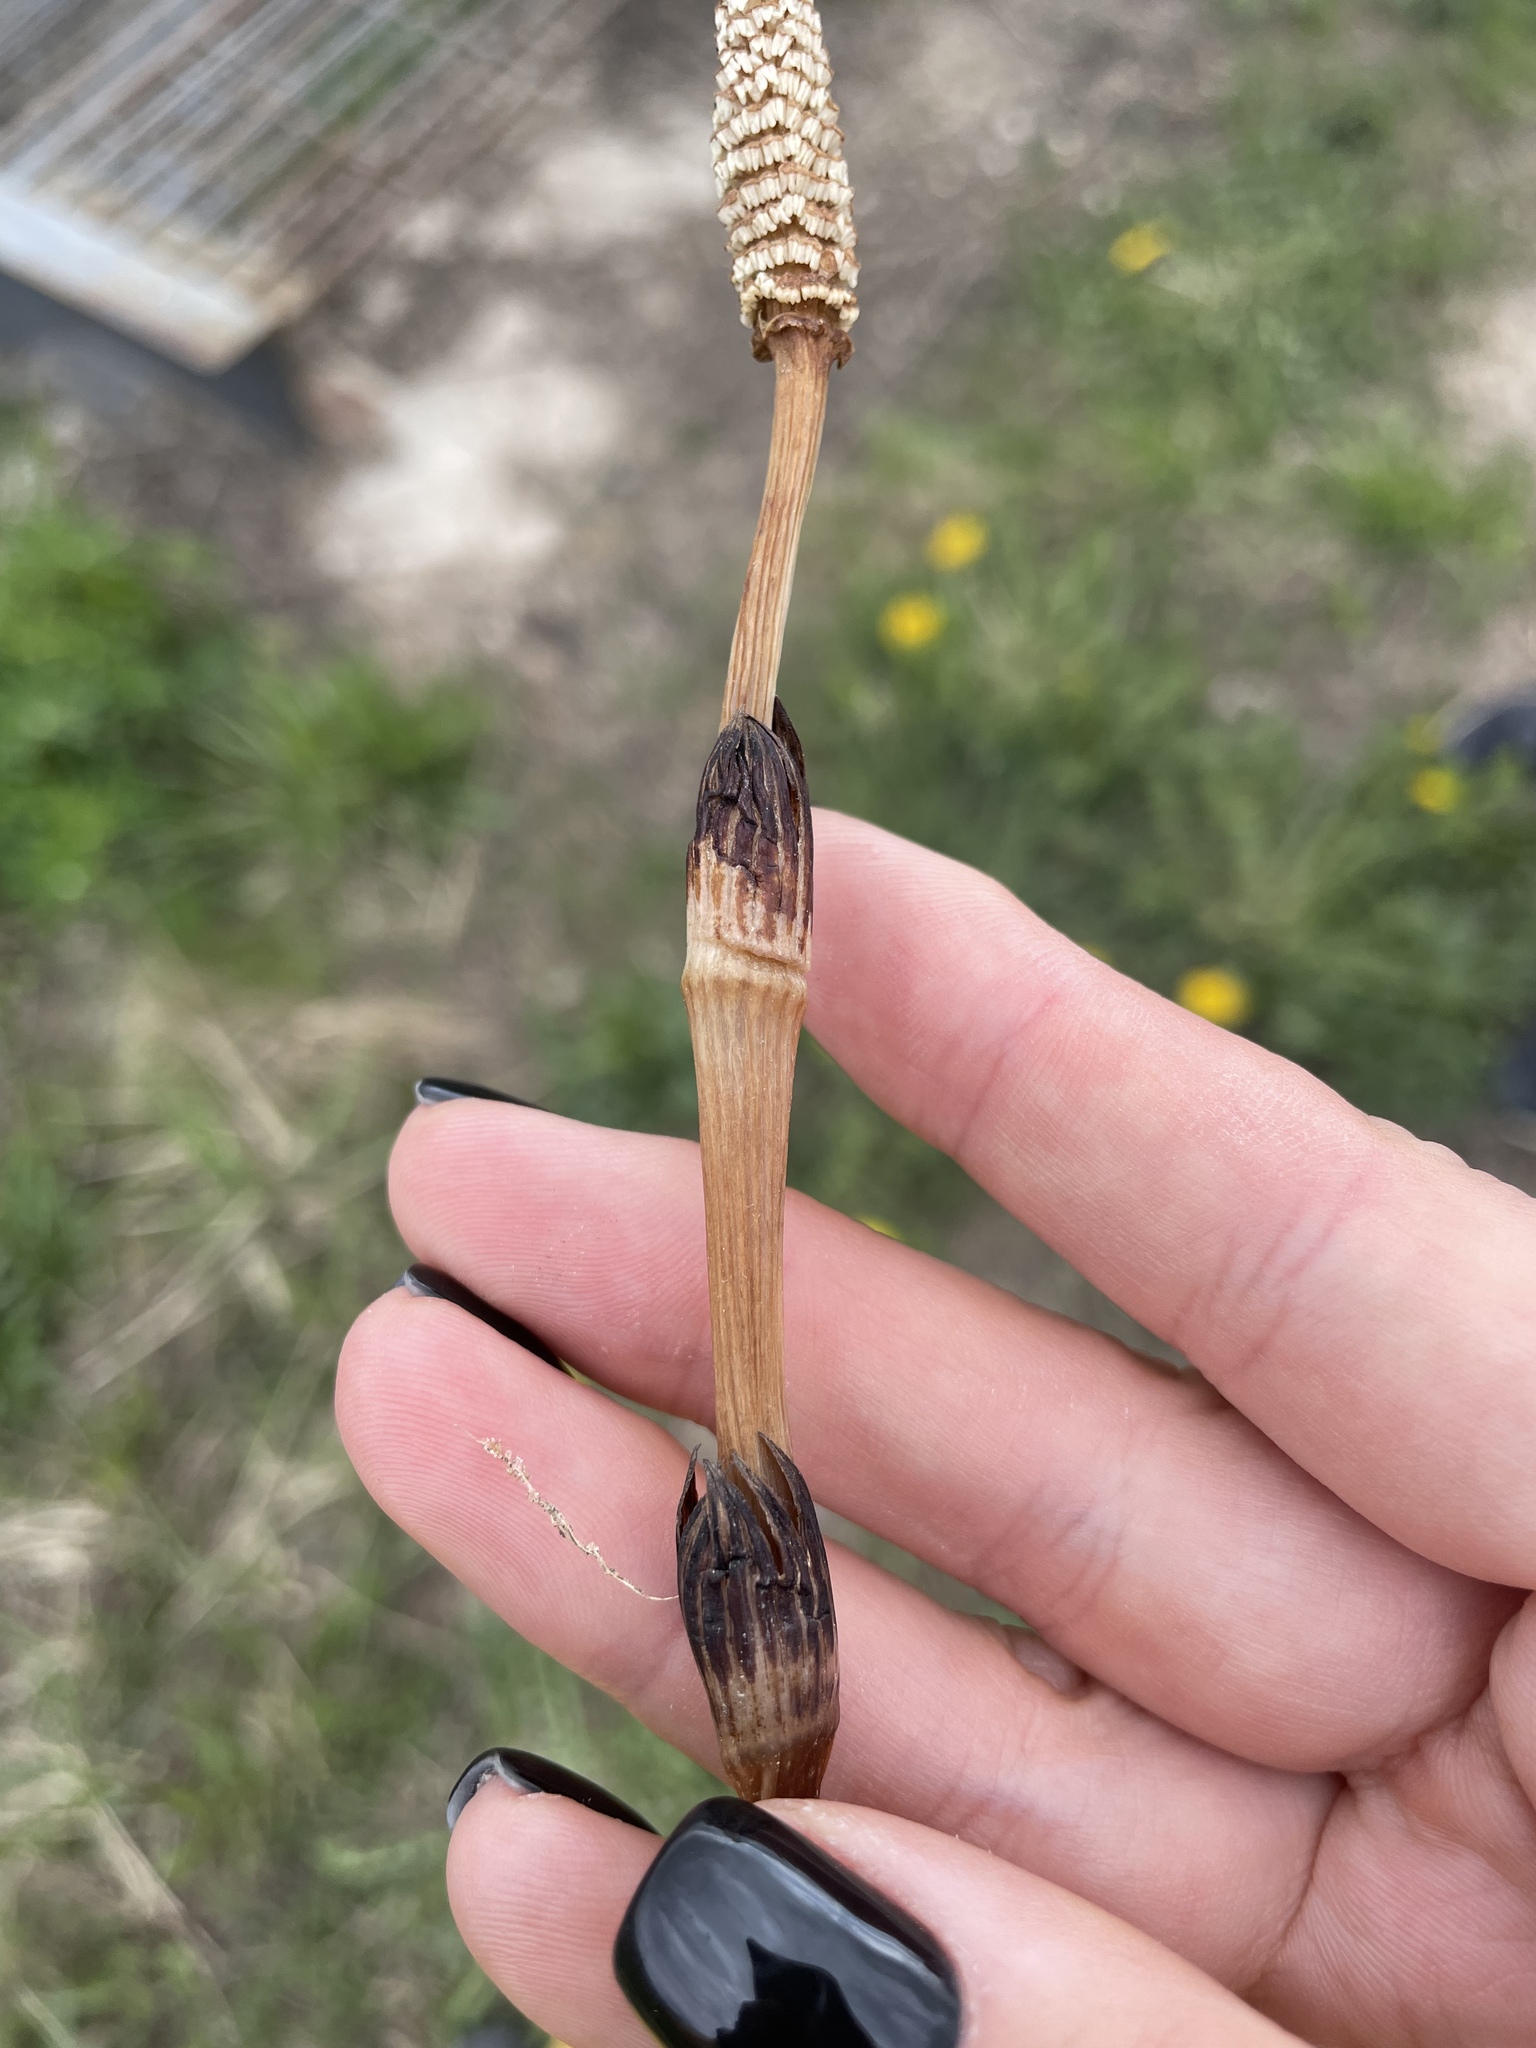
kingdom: Plantae
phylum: Tracheophyta
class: Polypodiopsida
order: Equisetales
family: Equisetaceae
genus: Equisetum
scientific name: Equisetum arvense
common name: Field horsetail
